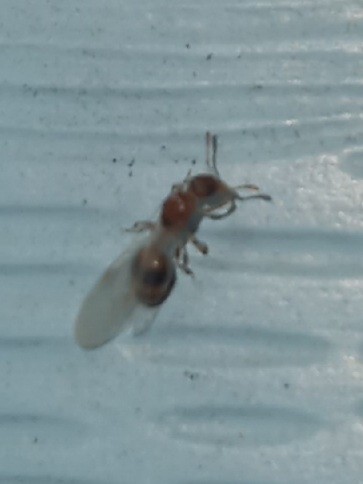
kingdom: Animalia
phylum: Arthropoda
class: Insecta
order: Hymenoptera
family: Formicidae
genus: Temnothorax
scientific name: Temnothorax curvispinosus
